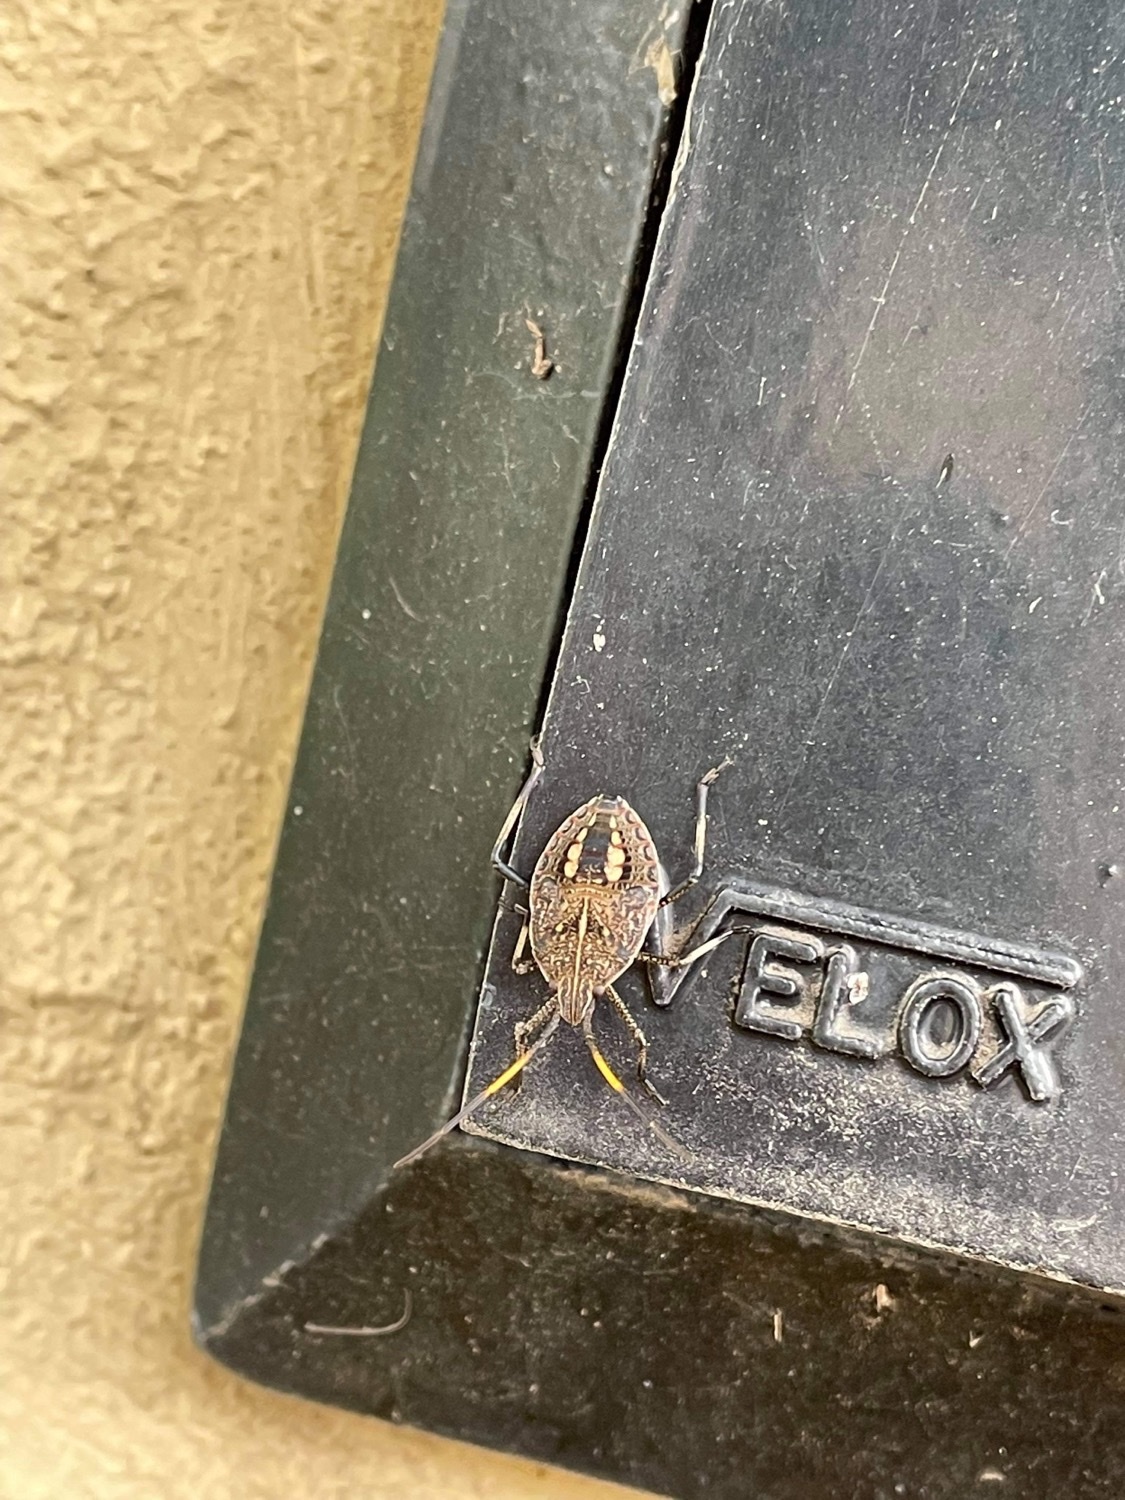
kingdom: Animalia
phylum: Arthropoda
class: Insecta
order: Hemiptera
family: Pentatomidae
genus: Poecilometis
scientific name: Poecilometis
